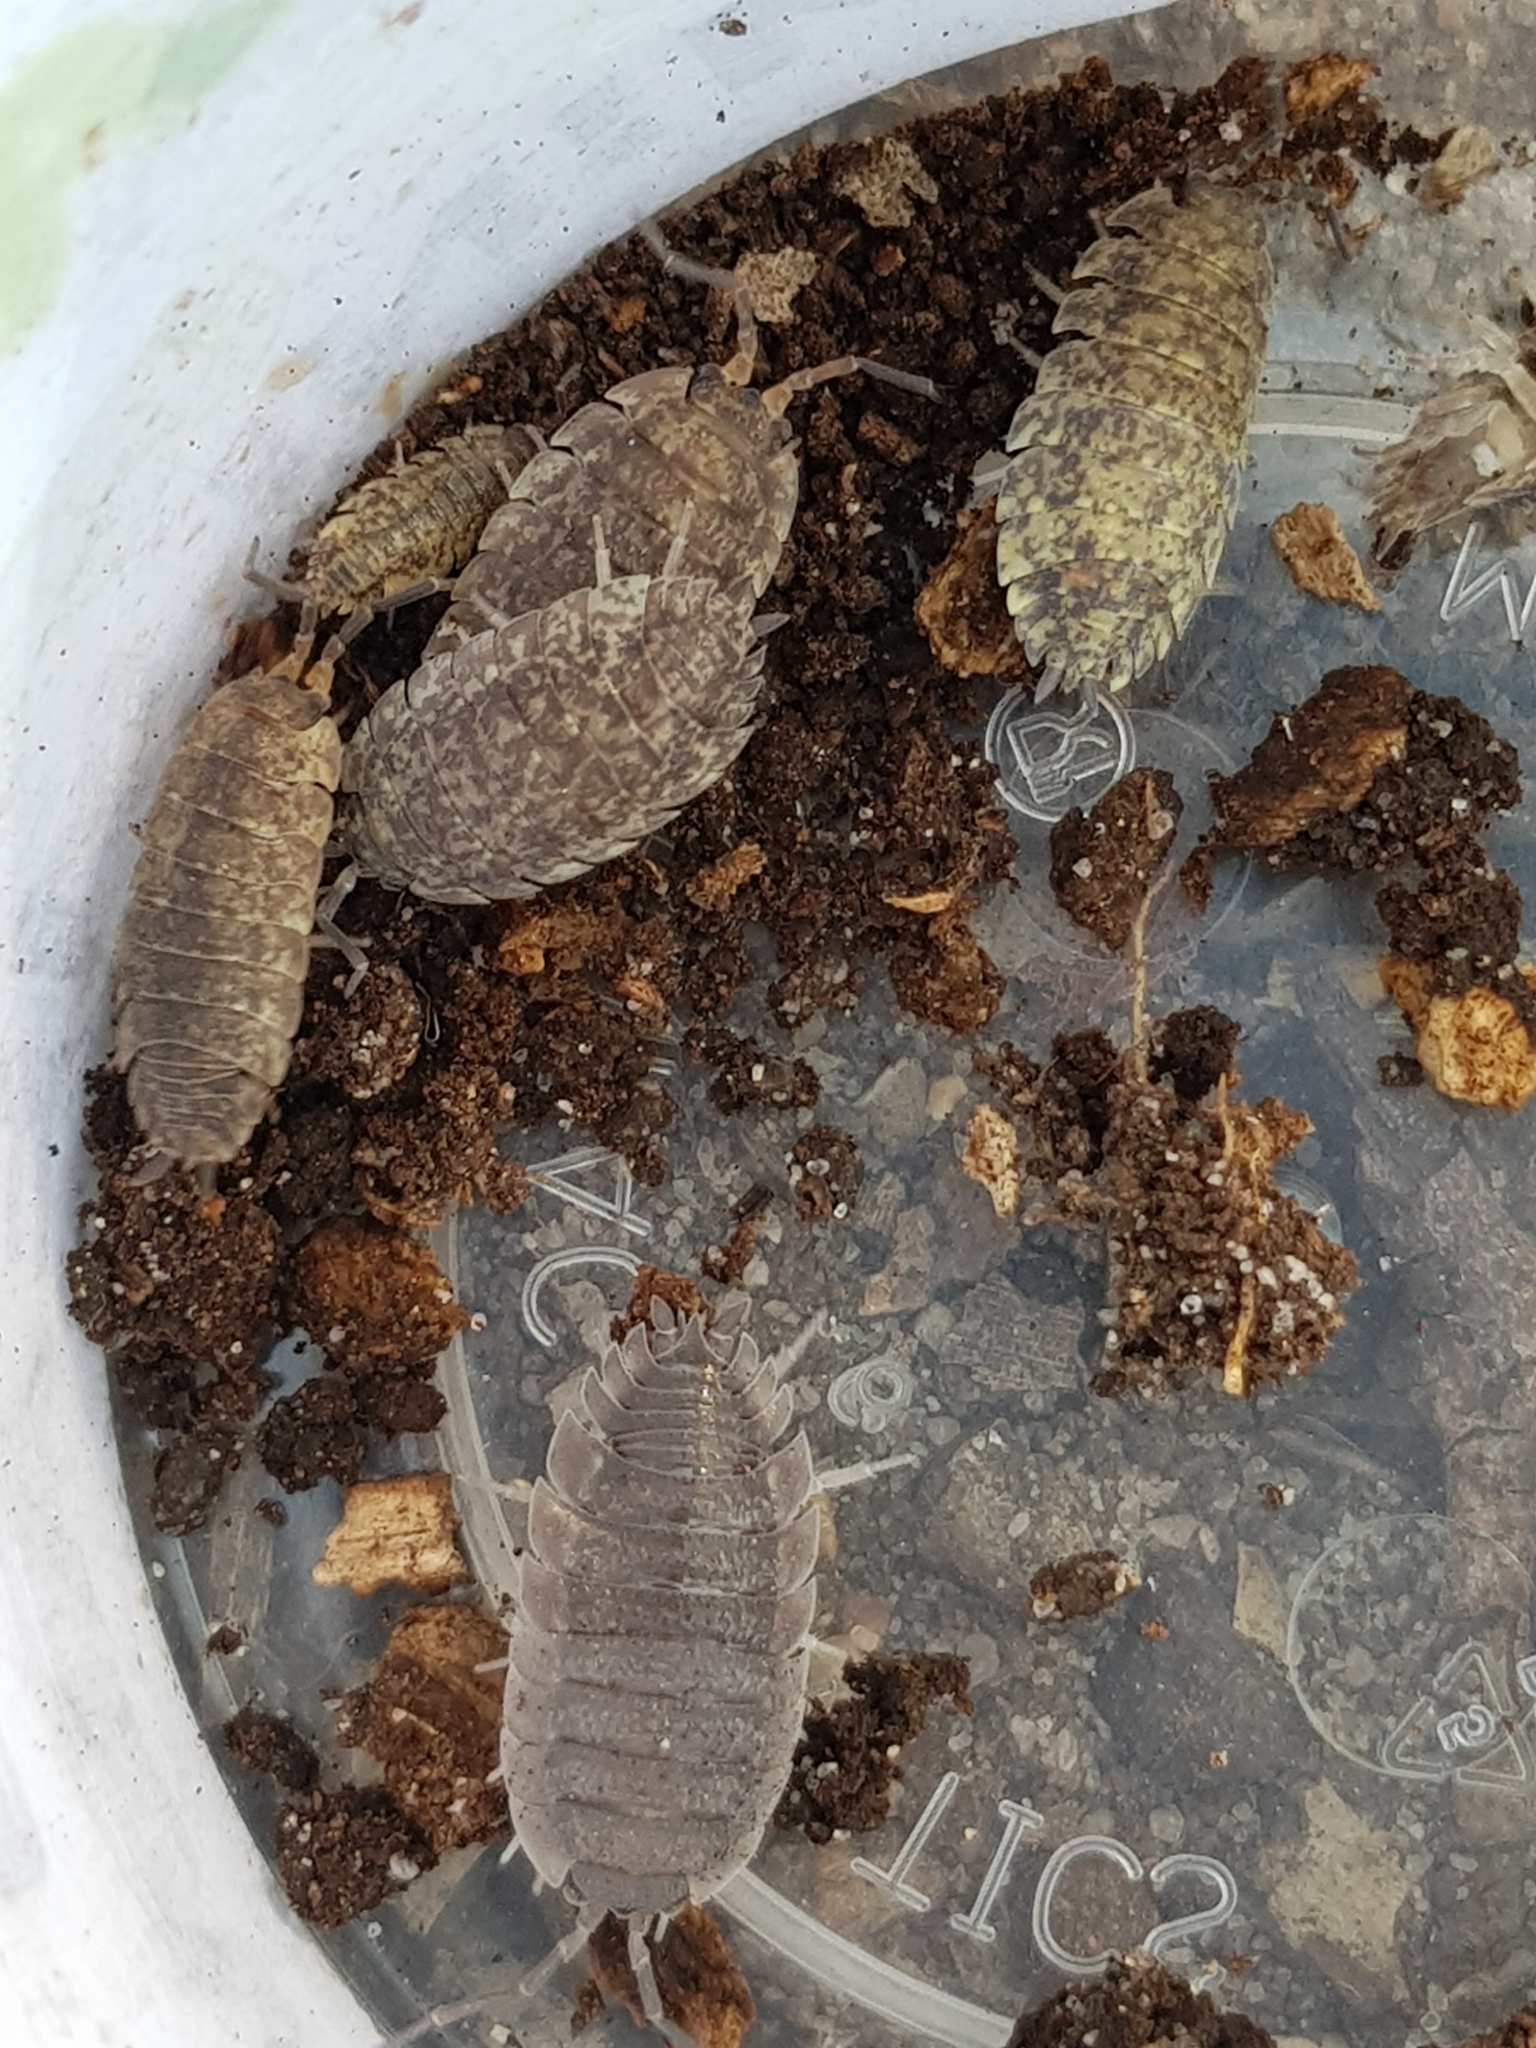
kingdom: Animalia
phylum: Arthropoda
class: Malacostraca
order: Isopoda
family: Porcellionidae
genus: Porcellio
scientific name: Porcellio scaber
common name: Common rough woodlouse
